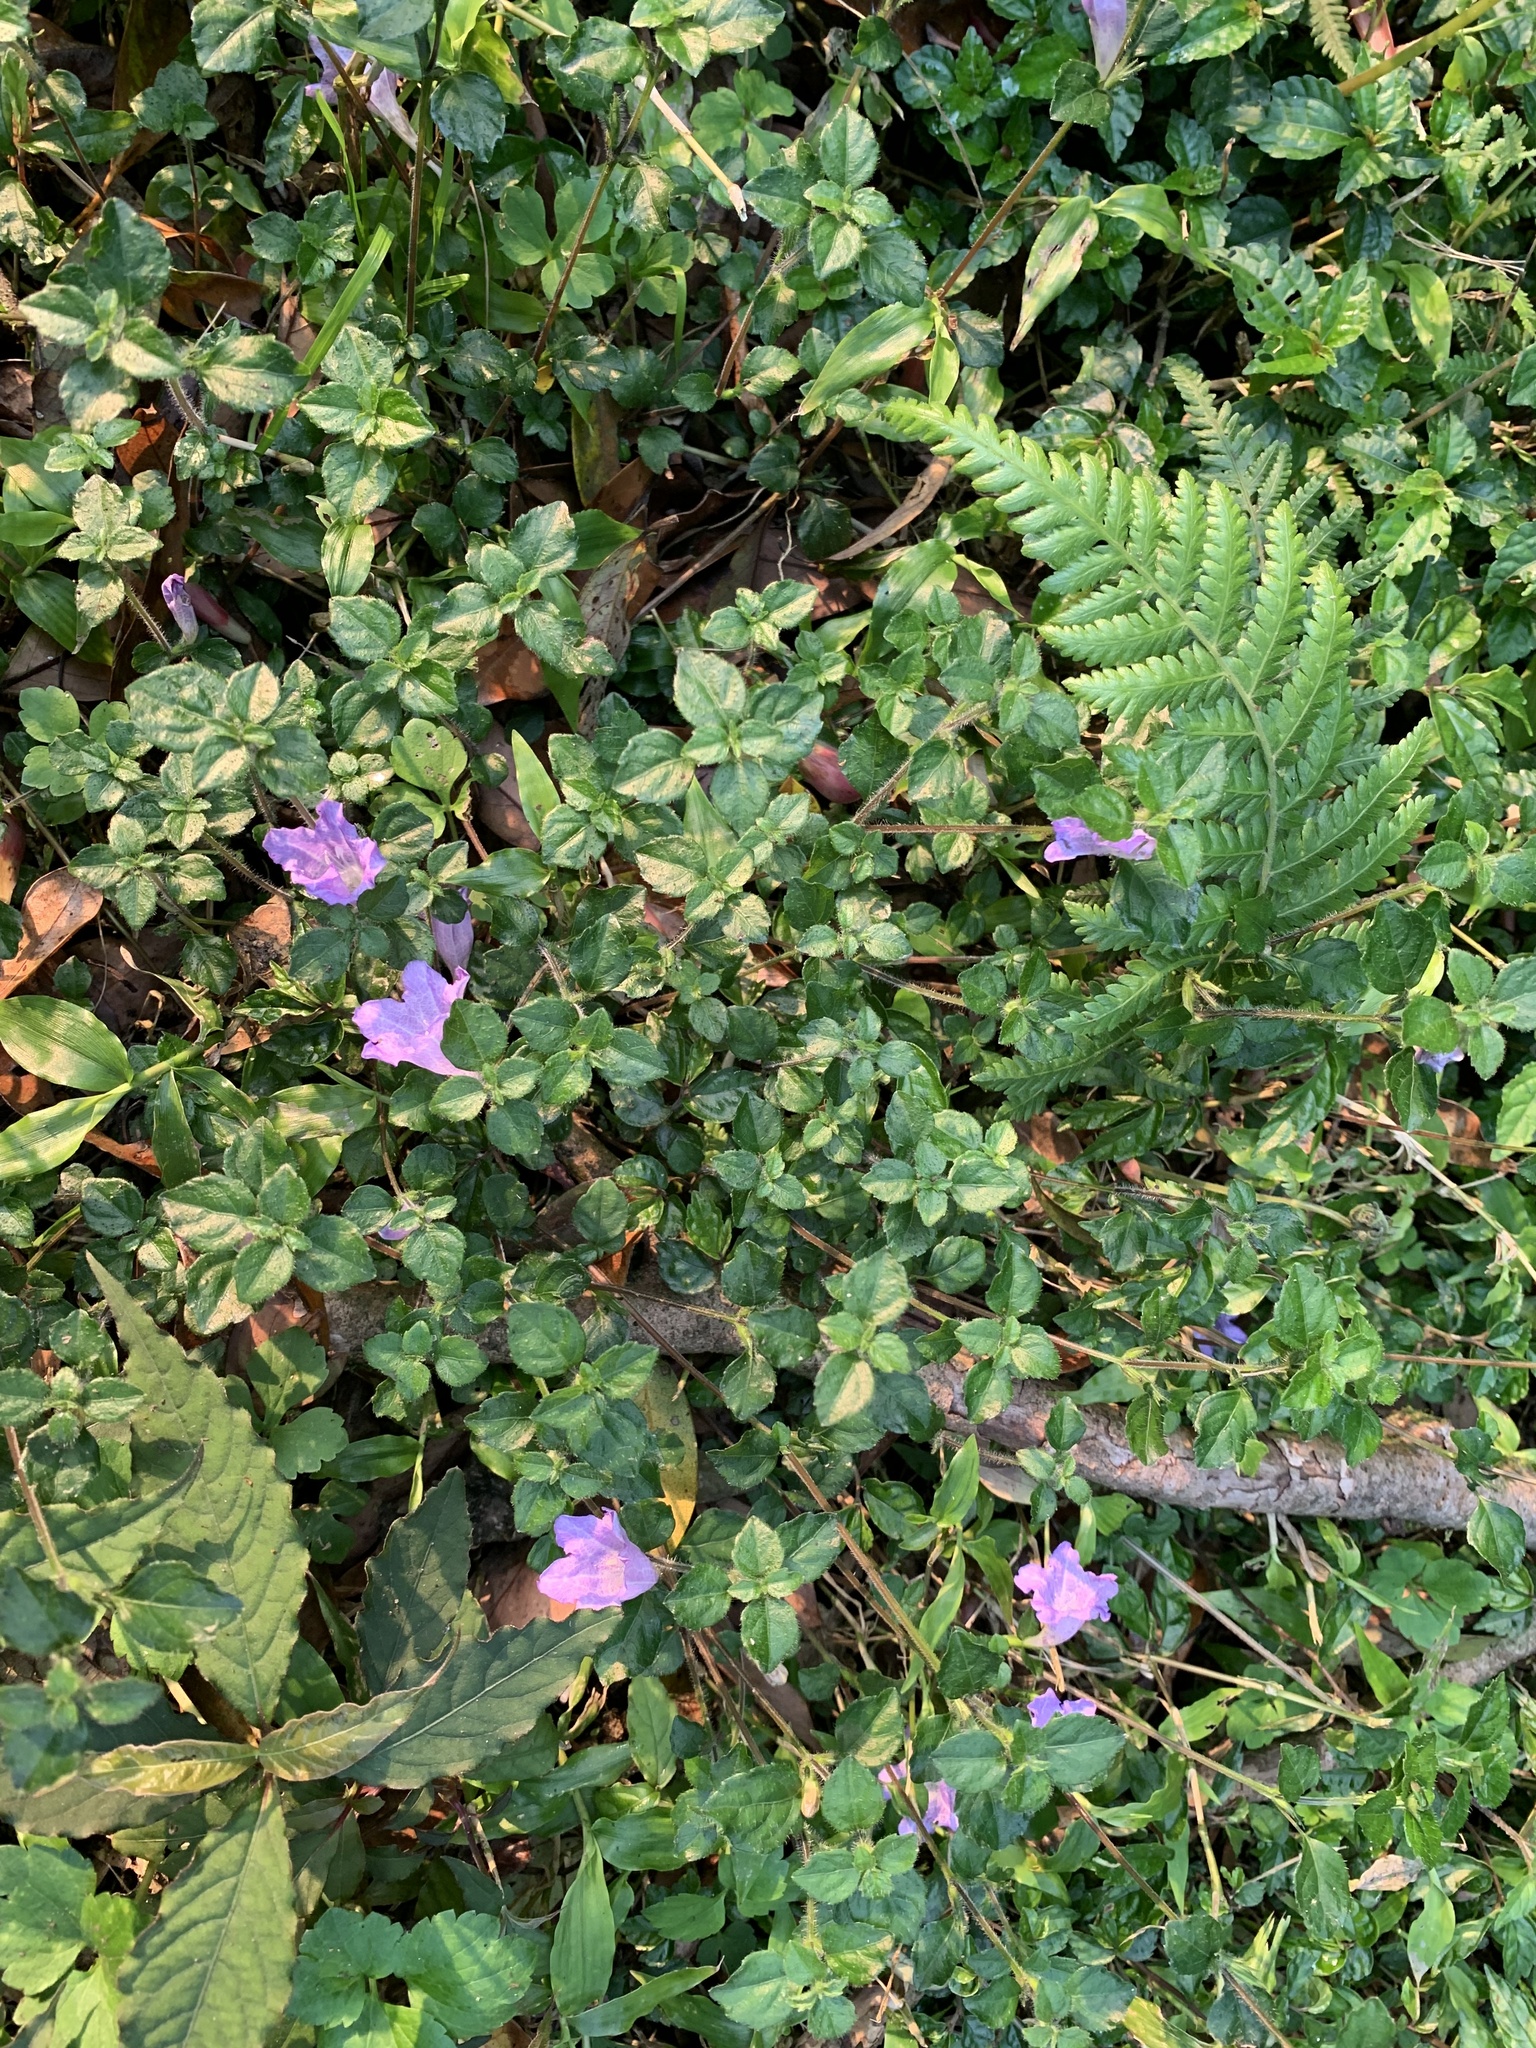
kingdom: Plantae
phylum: Tracheophyta
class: Magnoliopsida
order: Lamiales
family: Acanthaceae
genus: Strobilanthes
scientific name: Strobilanthes rankanensis
